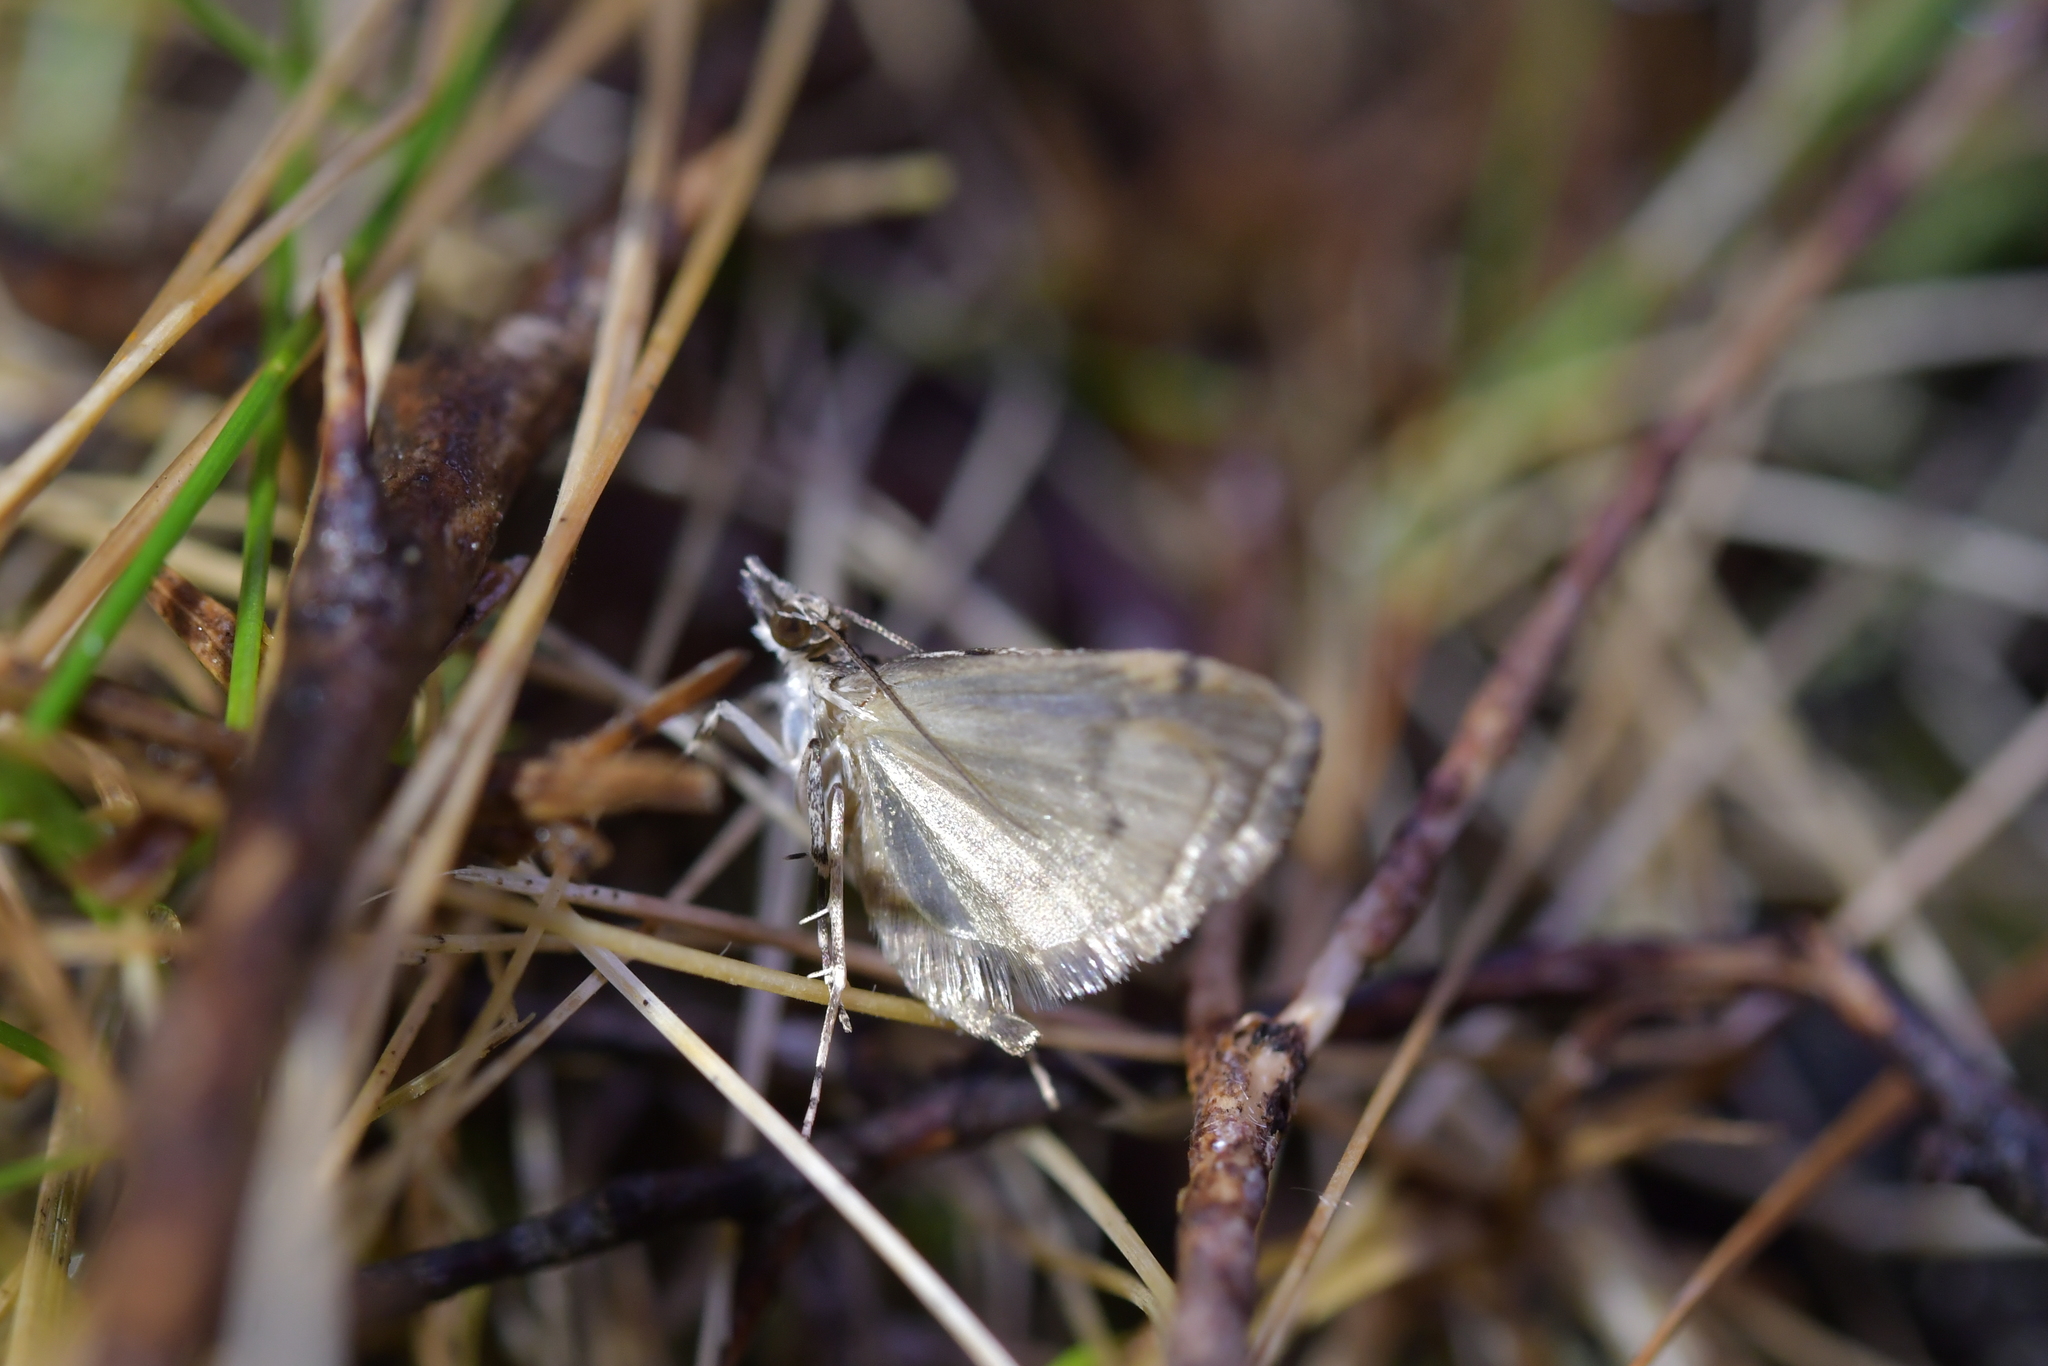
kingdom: Animalia
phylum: Arthropoda
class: Insecta
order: Lepidoptera
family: Crambidae
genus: Eudonia
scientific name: Eudonia choristis
